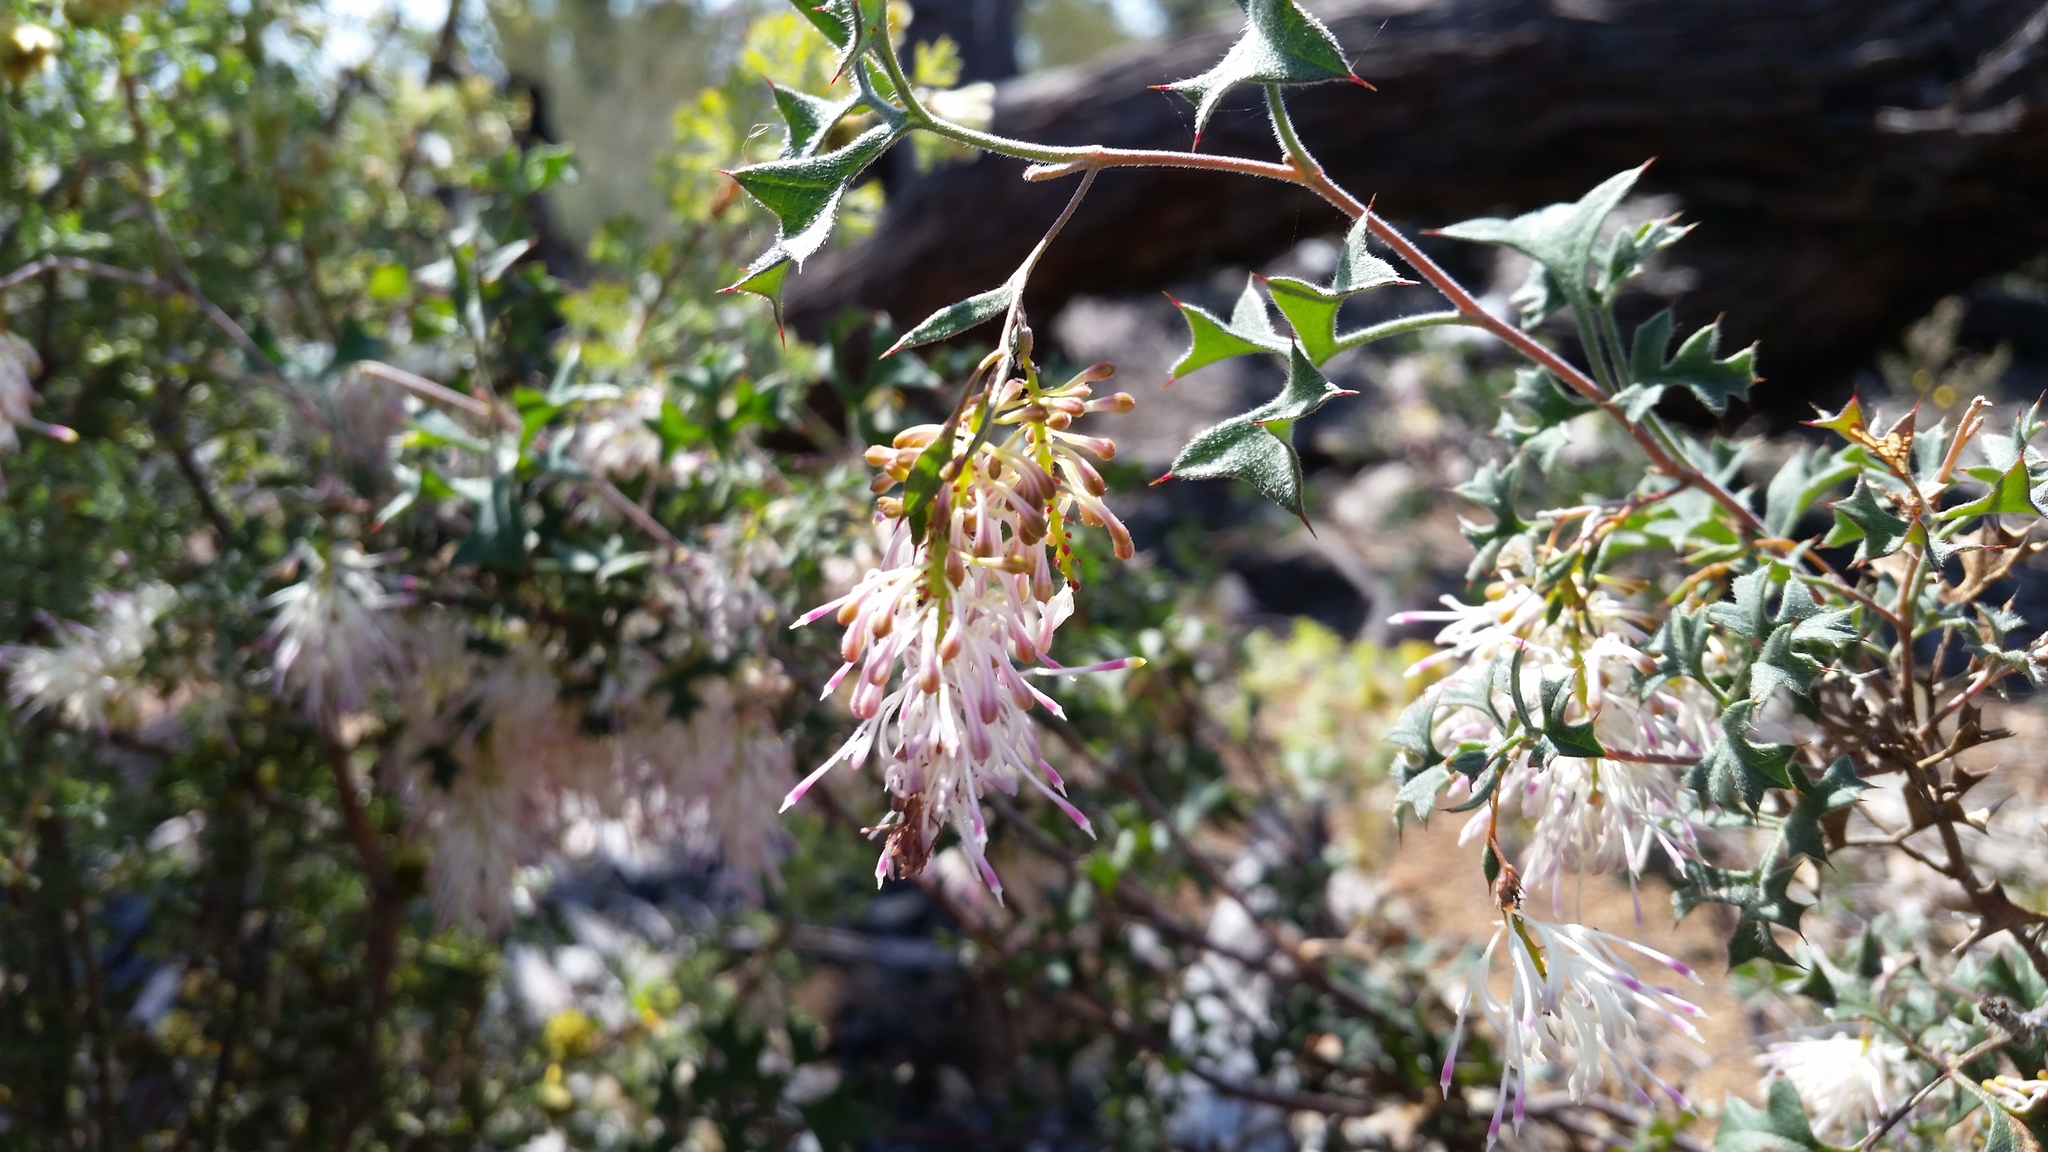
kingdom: Plantae
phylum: Tracheophyta
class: Magnoliopsida
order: Proteales
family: Proteaceae
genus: Grevillea
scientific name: Grevillea tenuiflora
